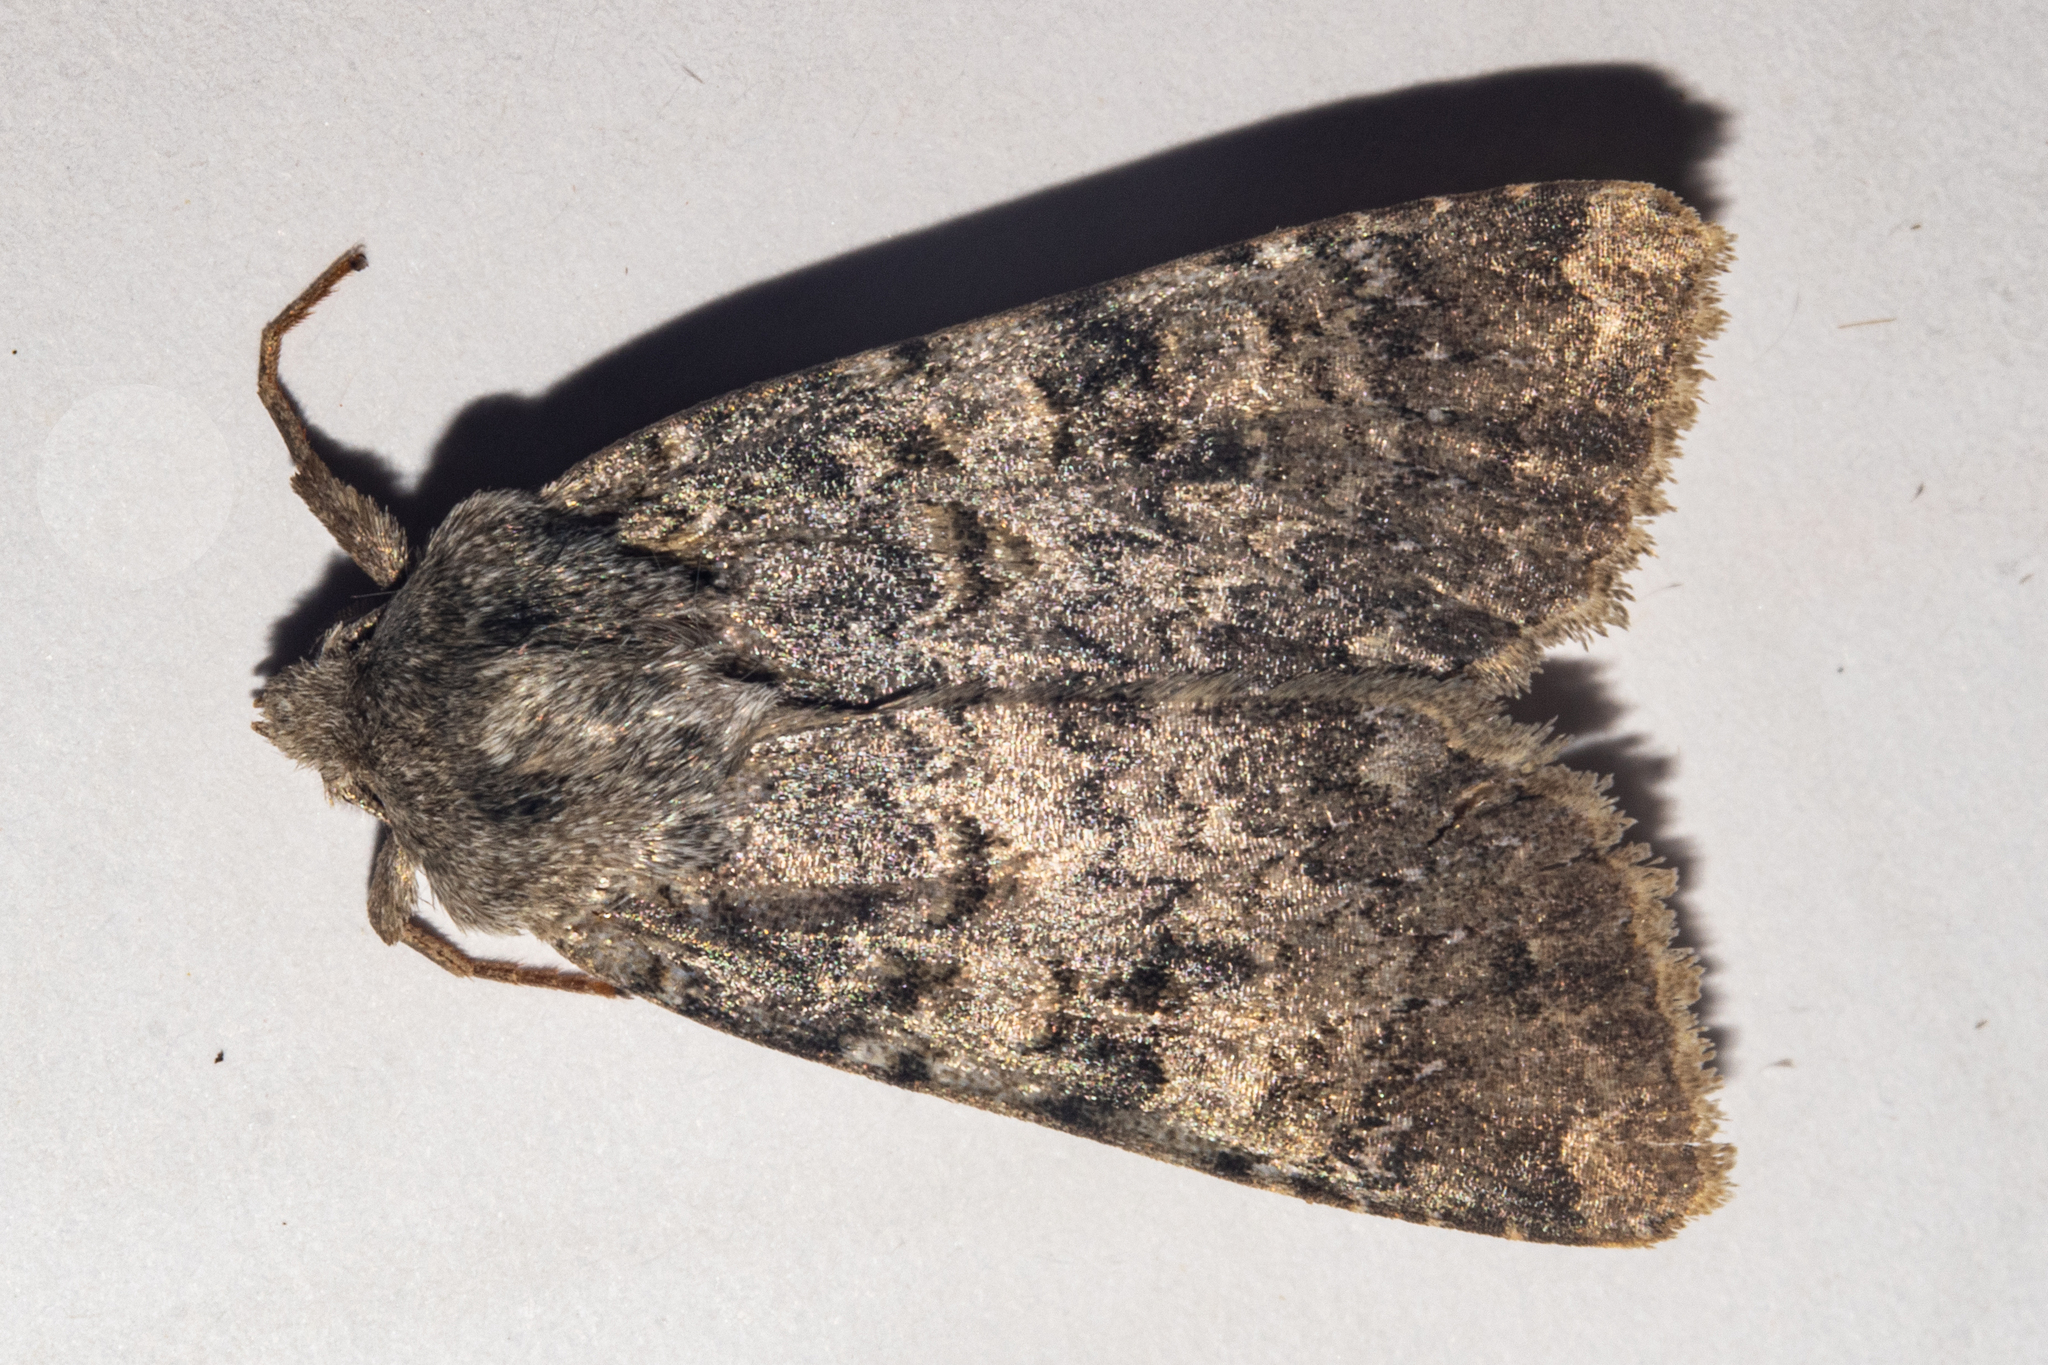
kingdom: Animalia
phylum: Arthropoda
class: Insecta
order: Lepidoptera
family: Noctuidae
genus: Ichneutica
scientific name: Ichneutica
